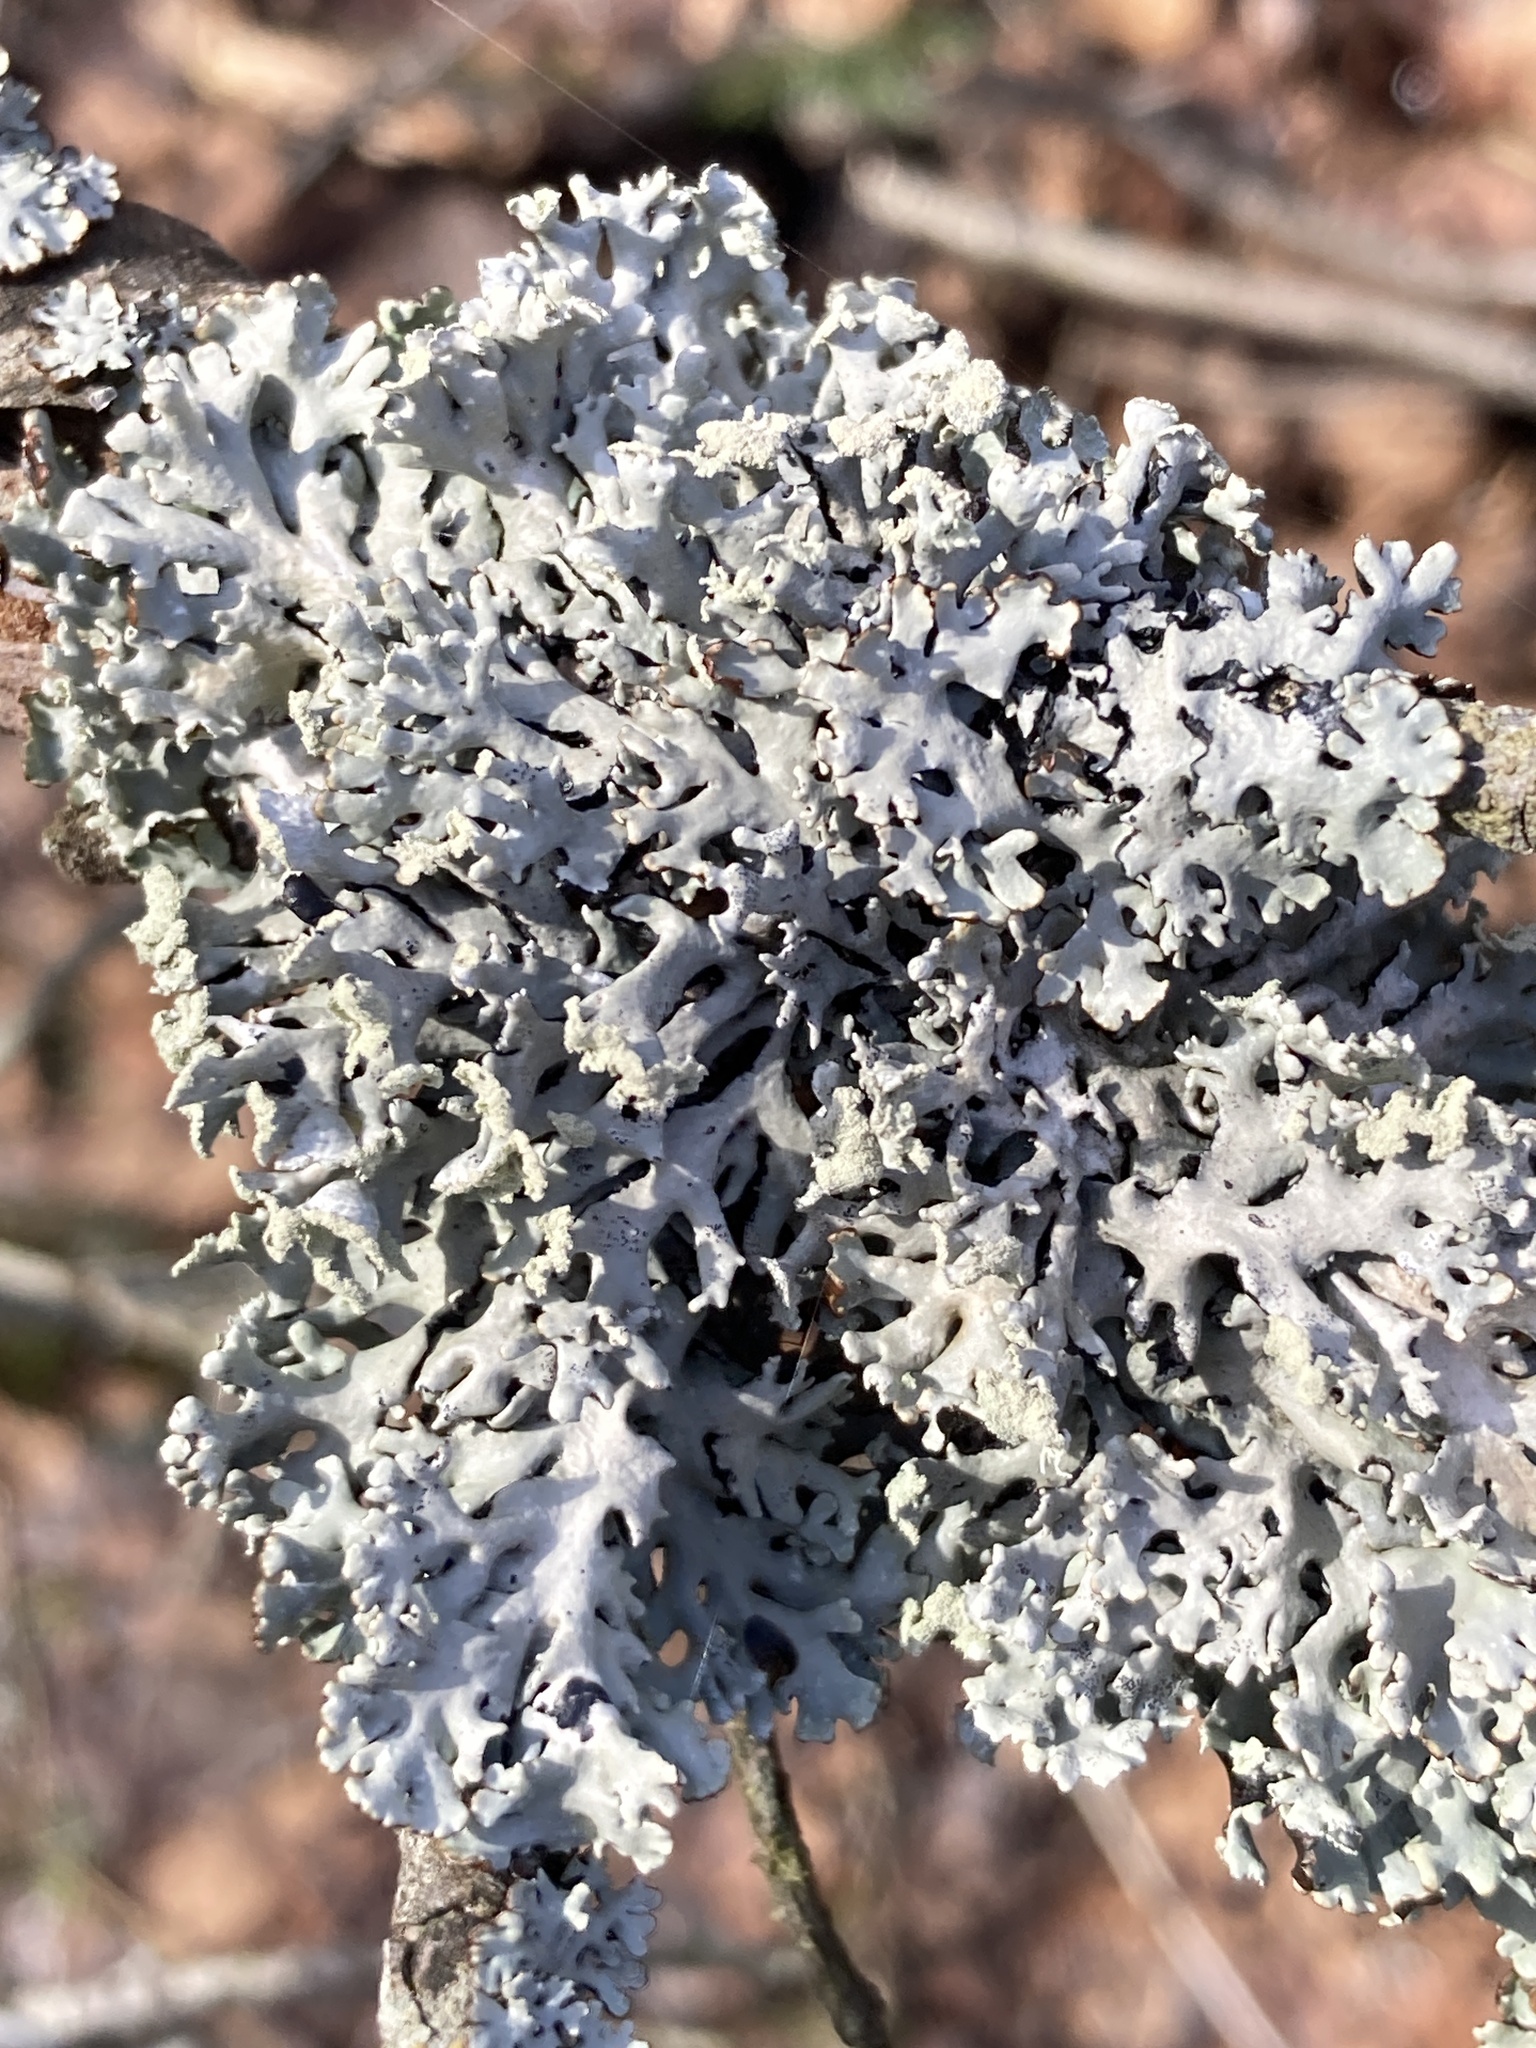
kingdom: Fungi
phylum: Ascomycota
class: Lecanoromycetes
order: Lecanorales
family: Parmeliaceae
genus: Hypogymnia
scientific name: Hypogymnia physodes
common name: Dark crottle
